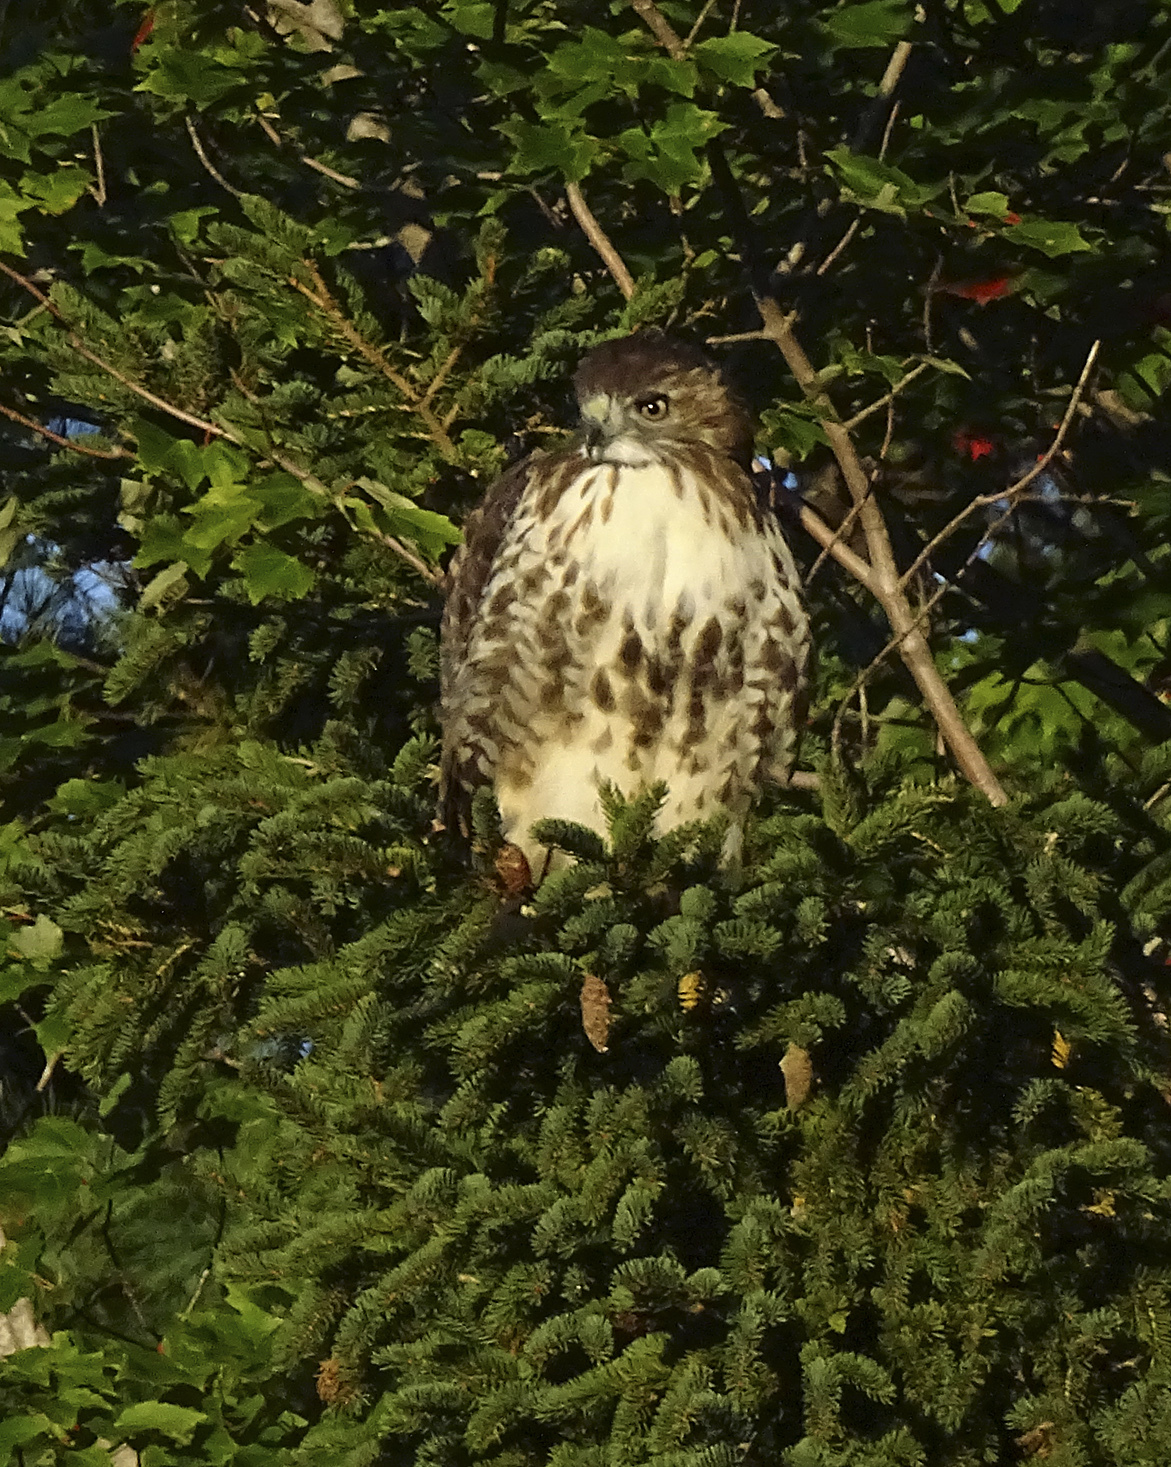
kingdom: Animalia
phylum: Chordata
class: Aves
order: Accipitriformes
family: Accipitridae
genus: Buteo
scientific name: Buteo jamaicensis
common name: Red-tailed hawk
